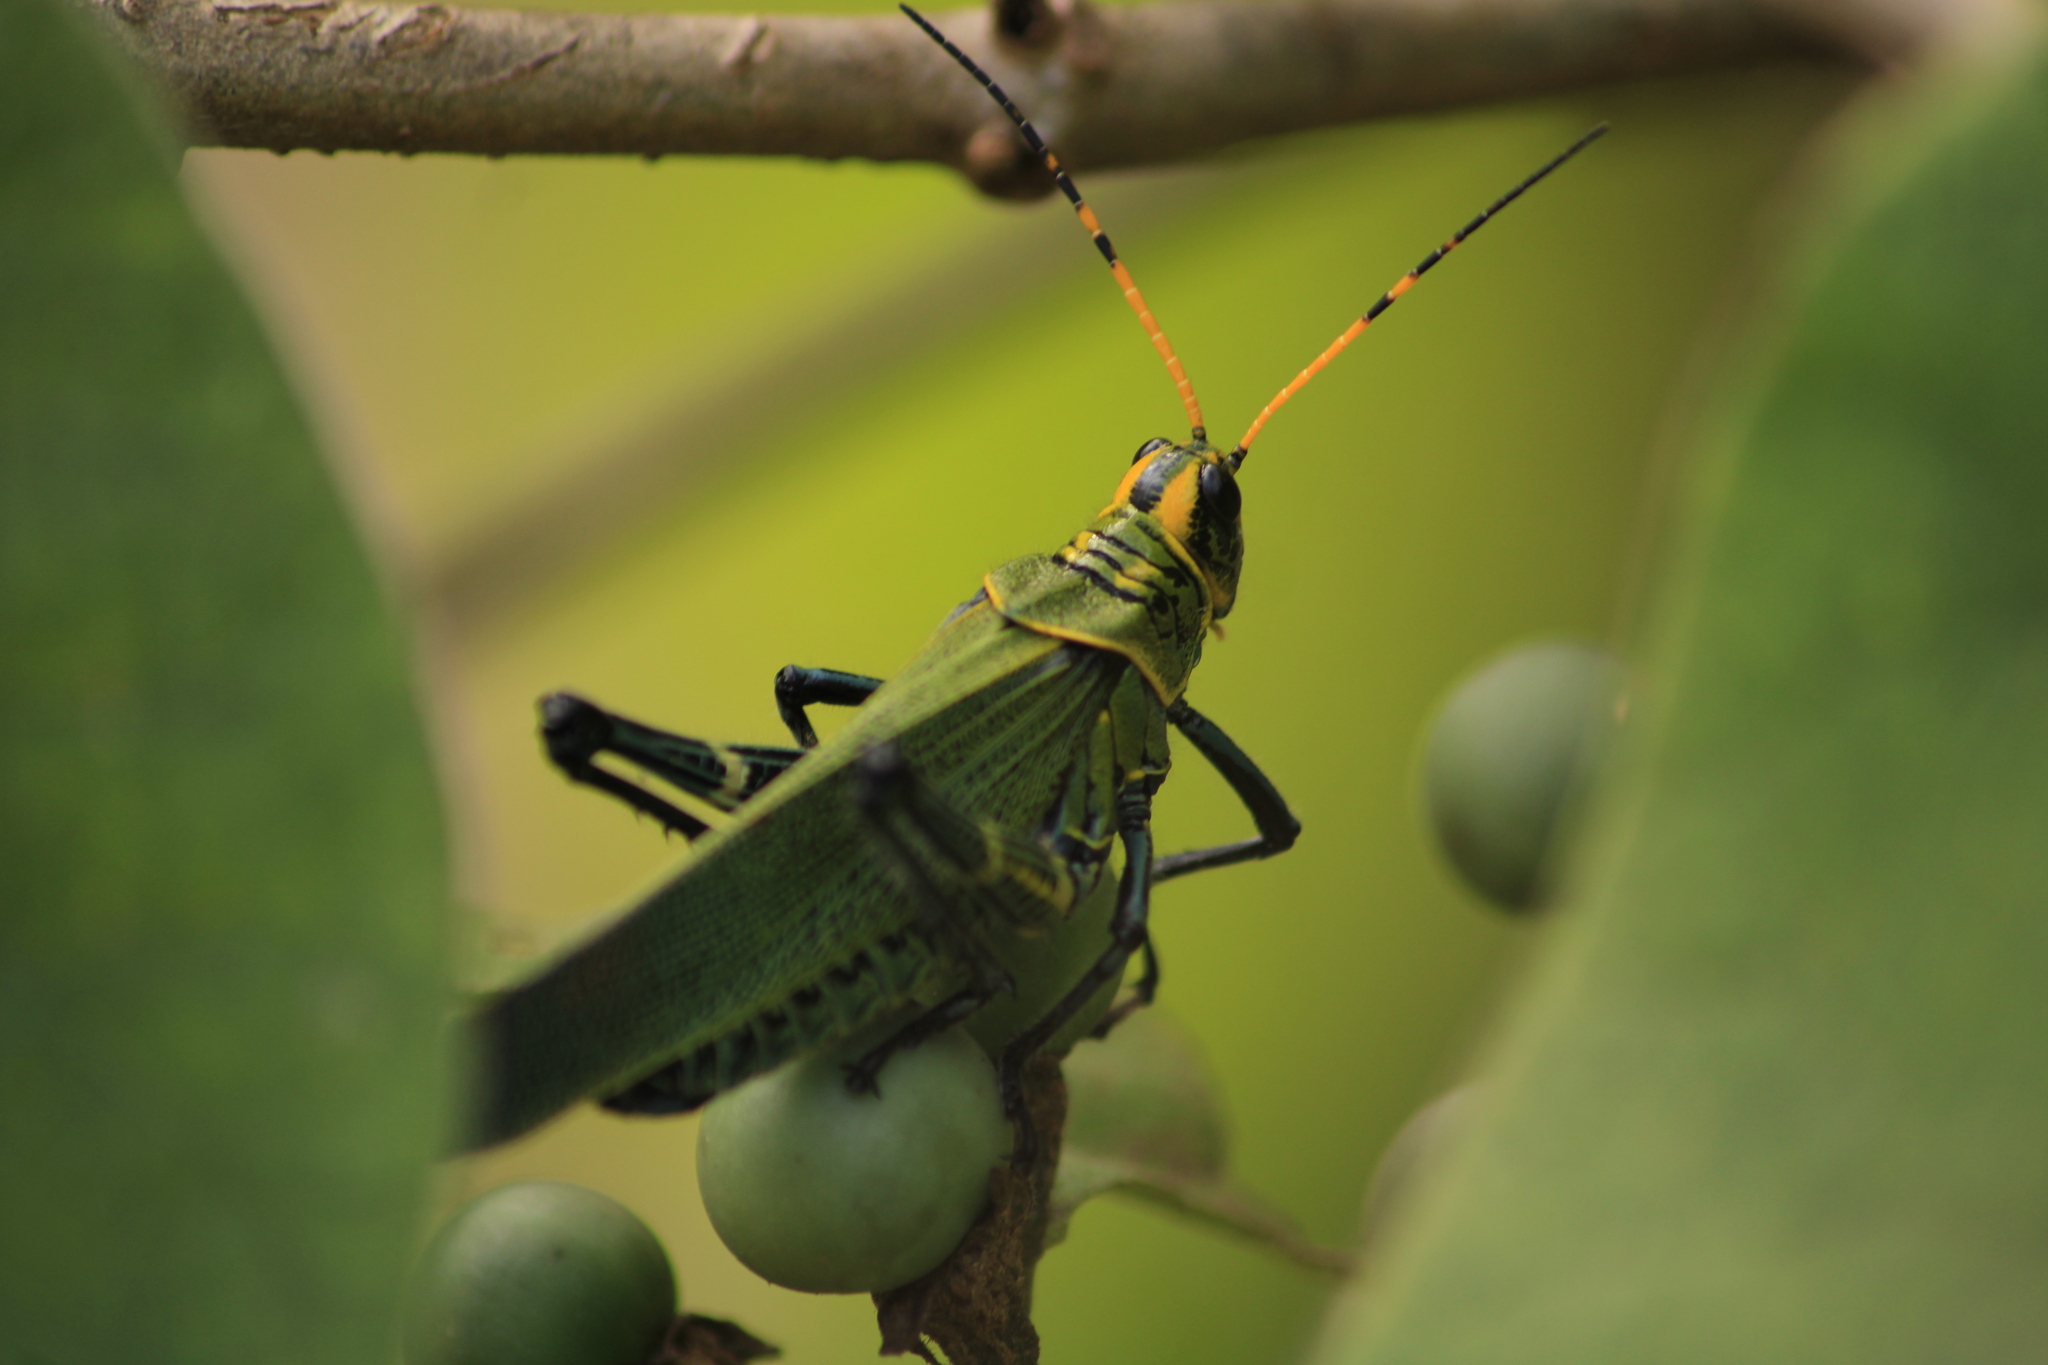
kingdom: Animalia
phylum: Arthropoda
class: Insecta
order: Orthoptera
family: Romaleidae
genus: Chromacris
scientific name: Chromacris colorata
